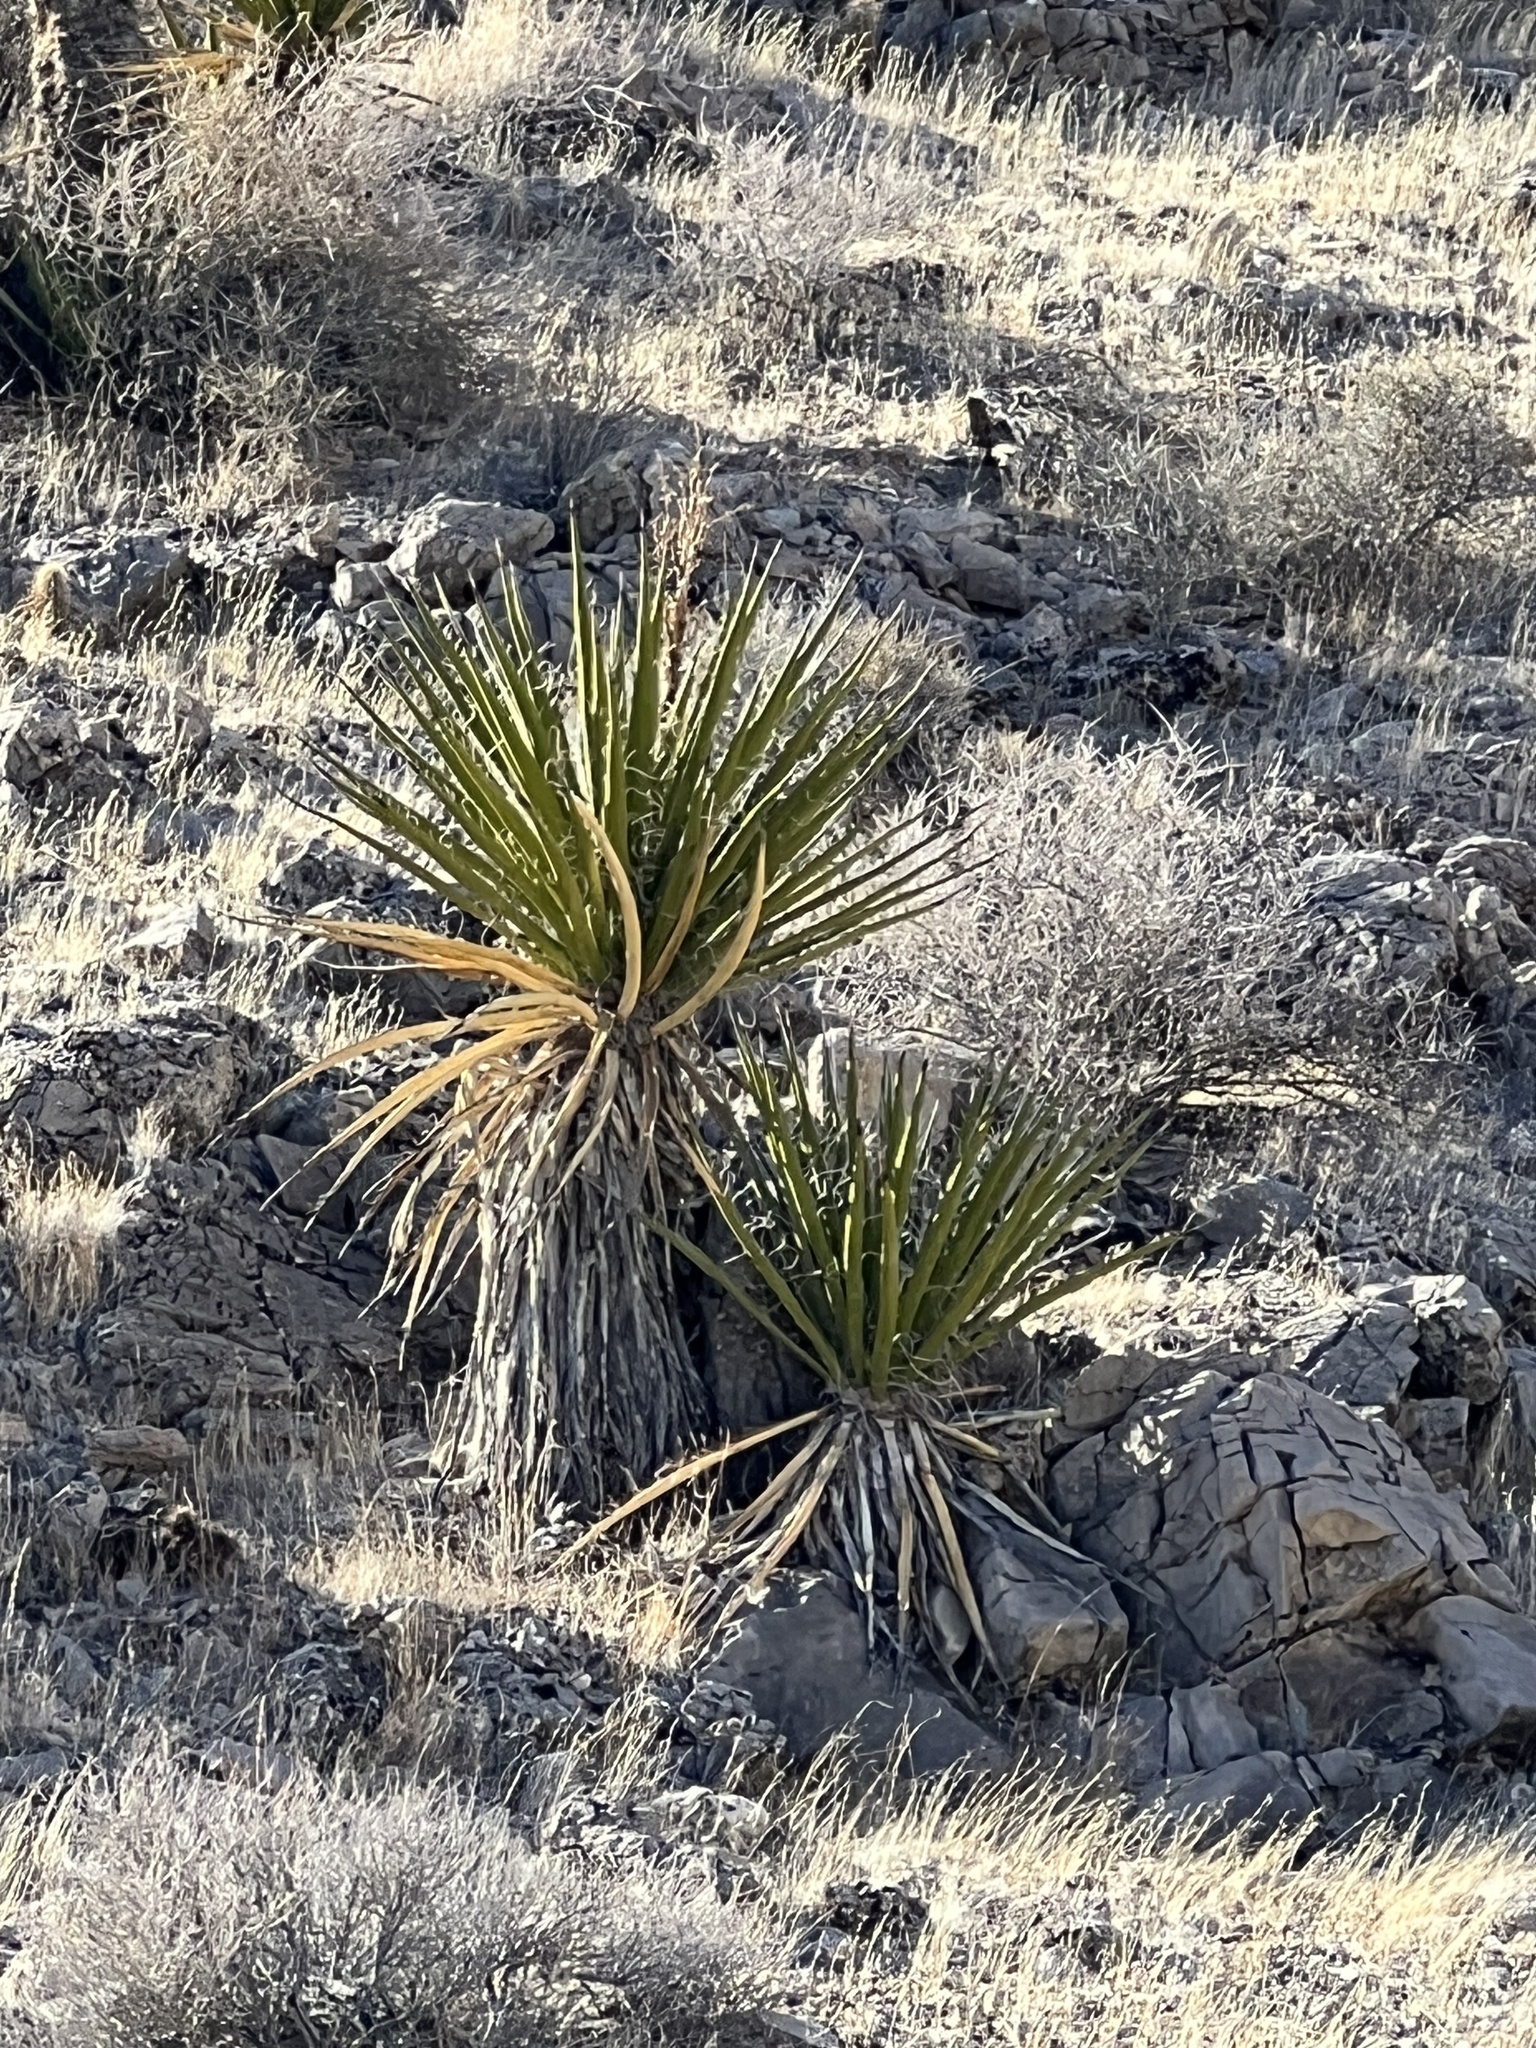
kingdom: Plantae
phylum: Tracheophyta
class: Liliopsida
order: Asparagales
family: Asparagaceae
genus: Yucca
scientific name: Yucca schidigera
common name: Mojave yucca
